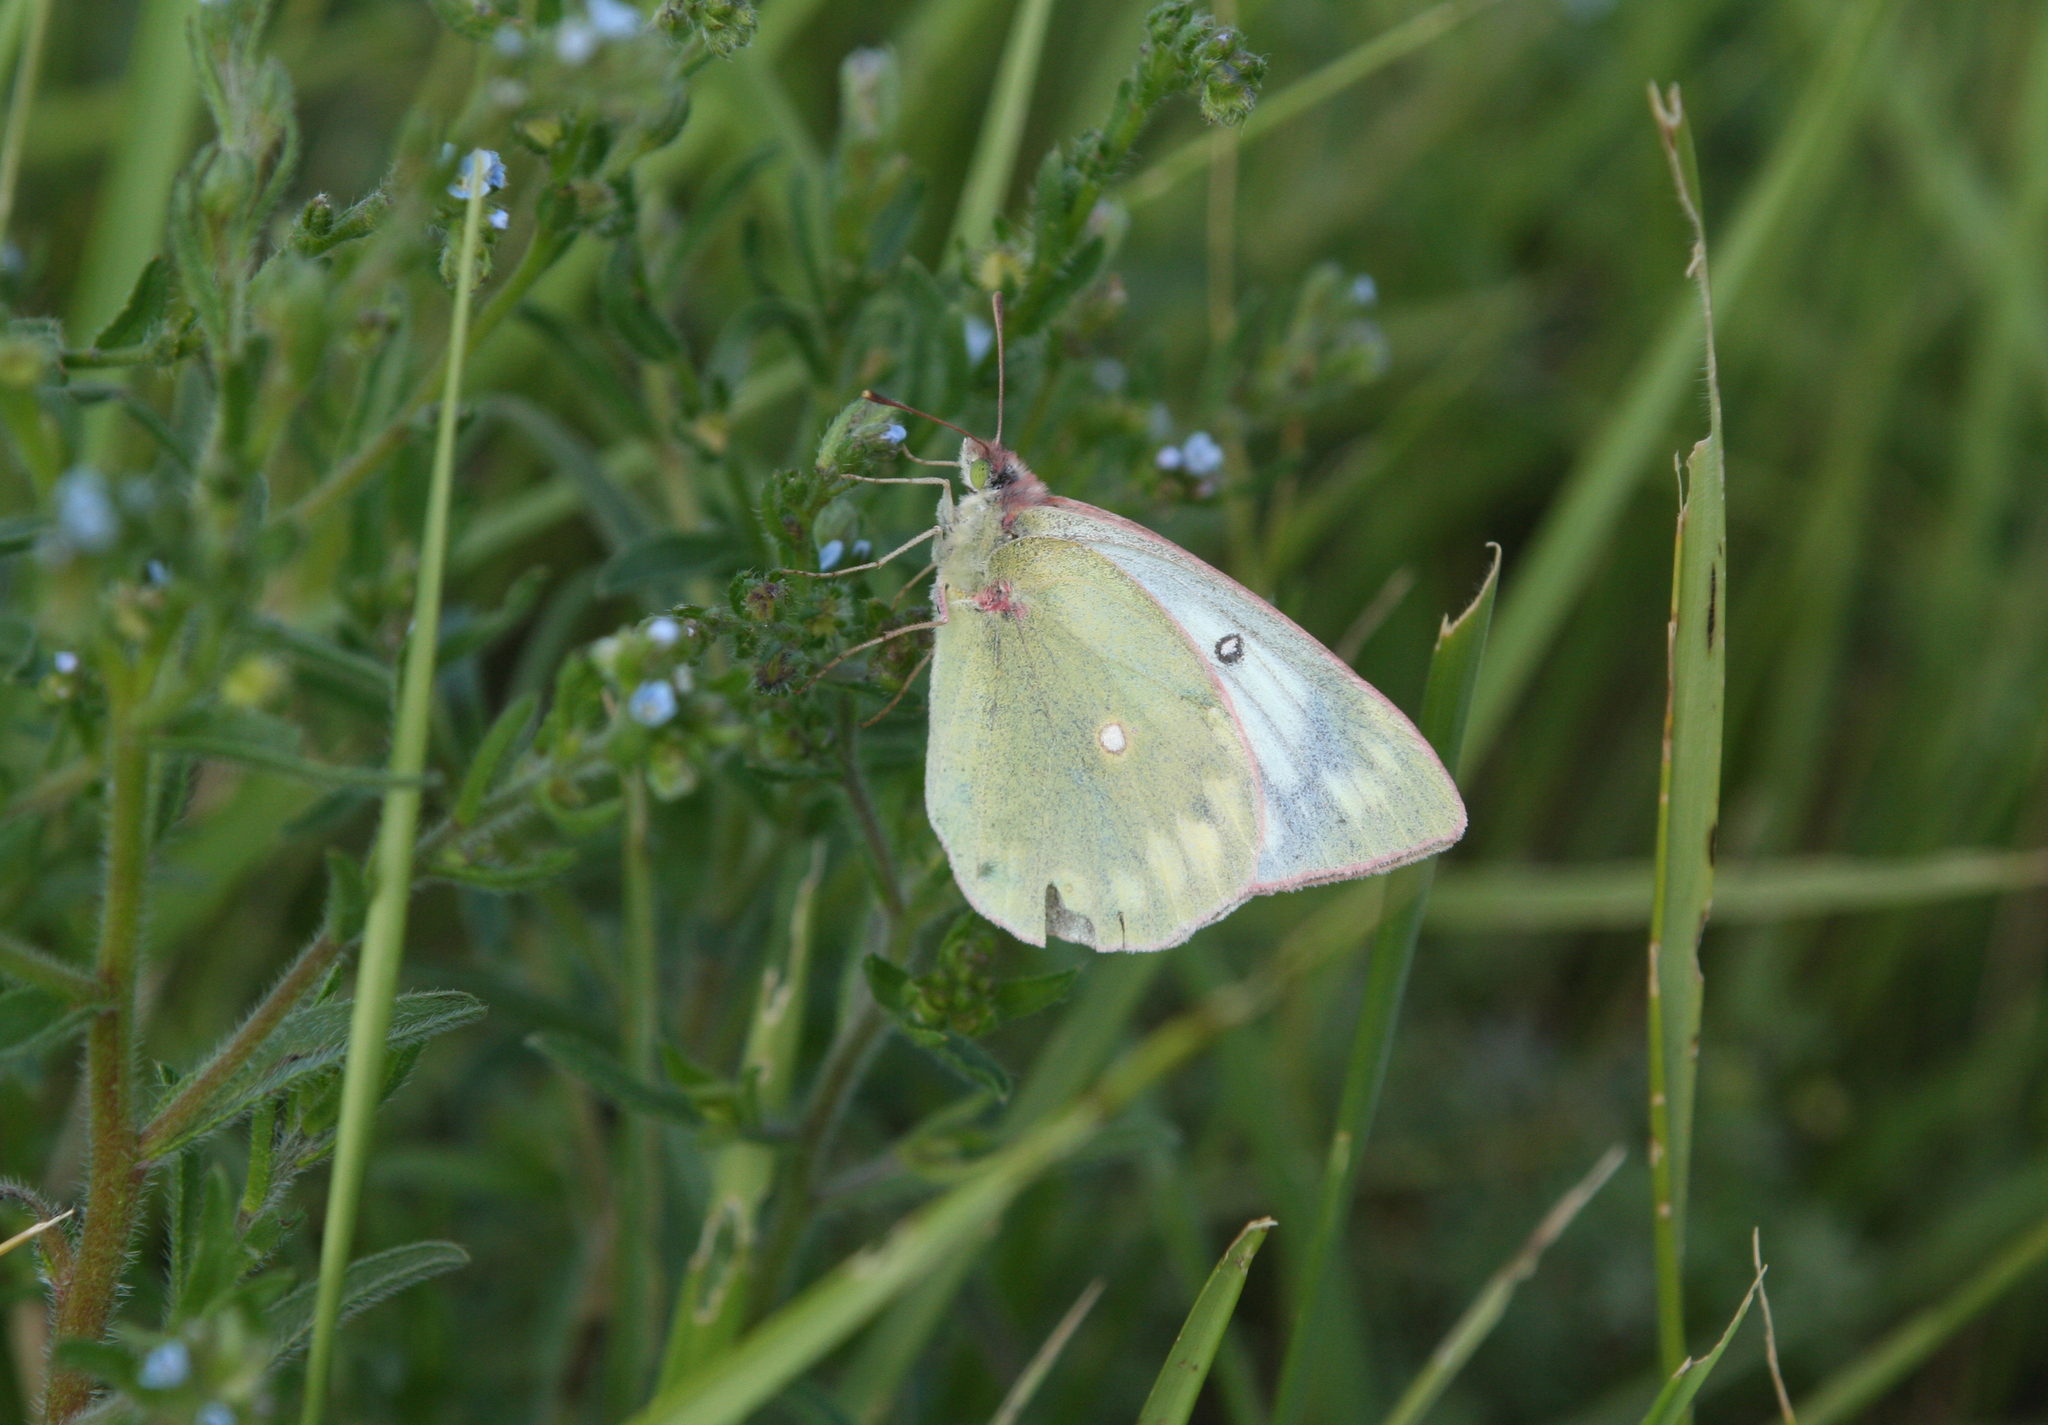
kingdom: Animalia
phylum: Arthropoda
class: Insecta
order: Lepidoptera
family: Pieridae
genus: Colias
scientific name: Colias heos
